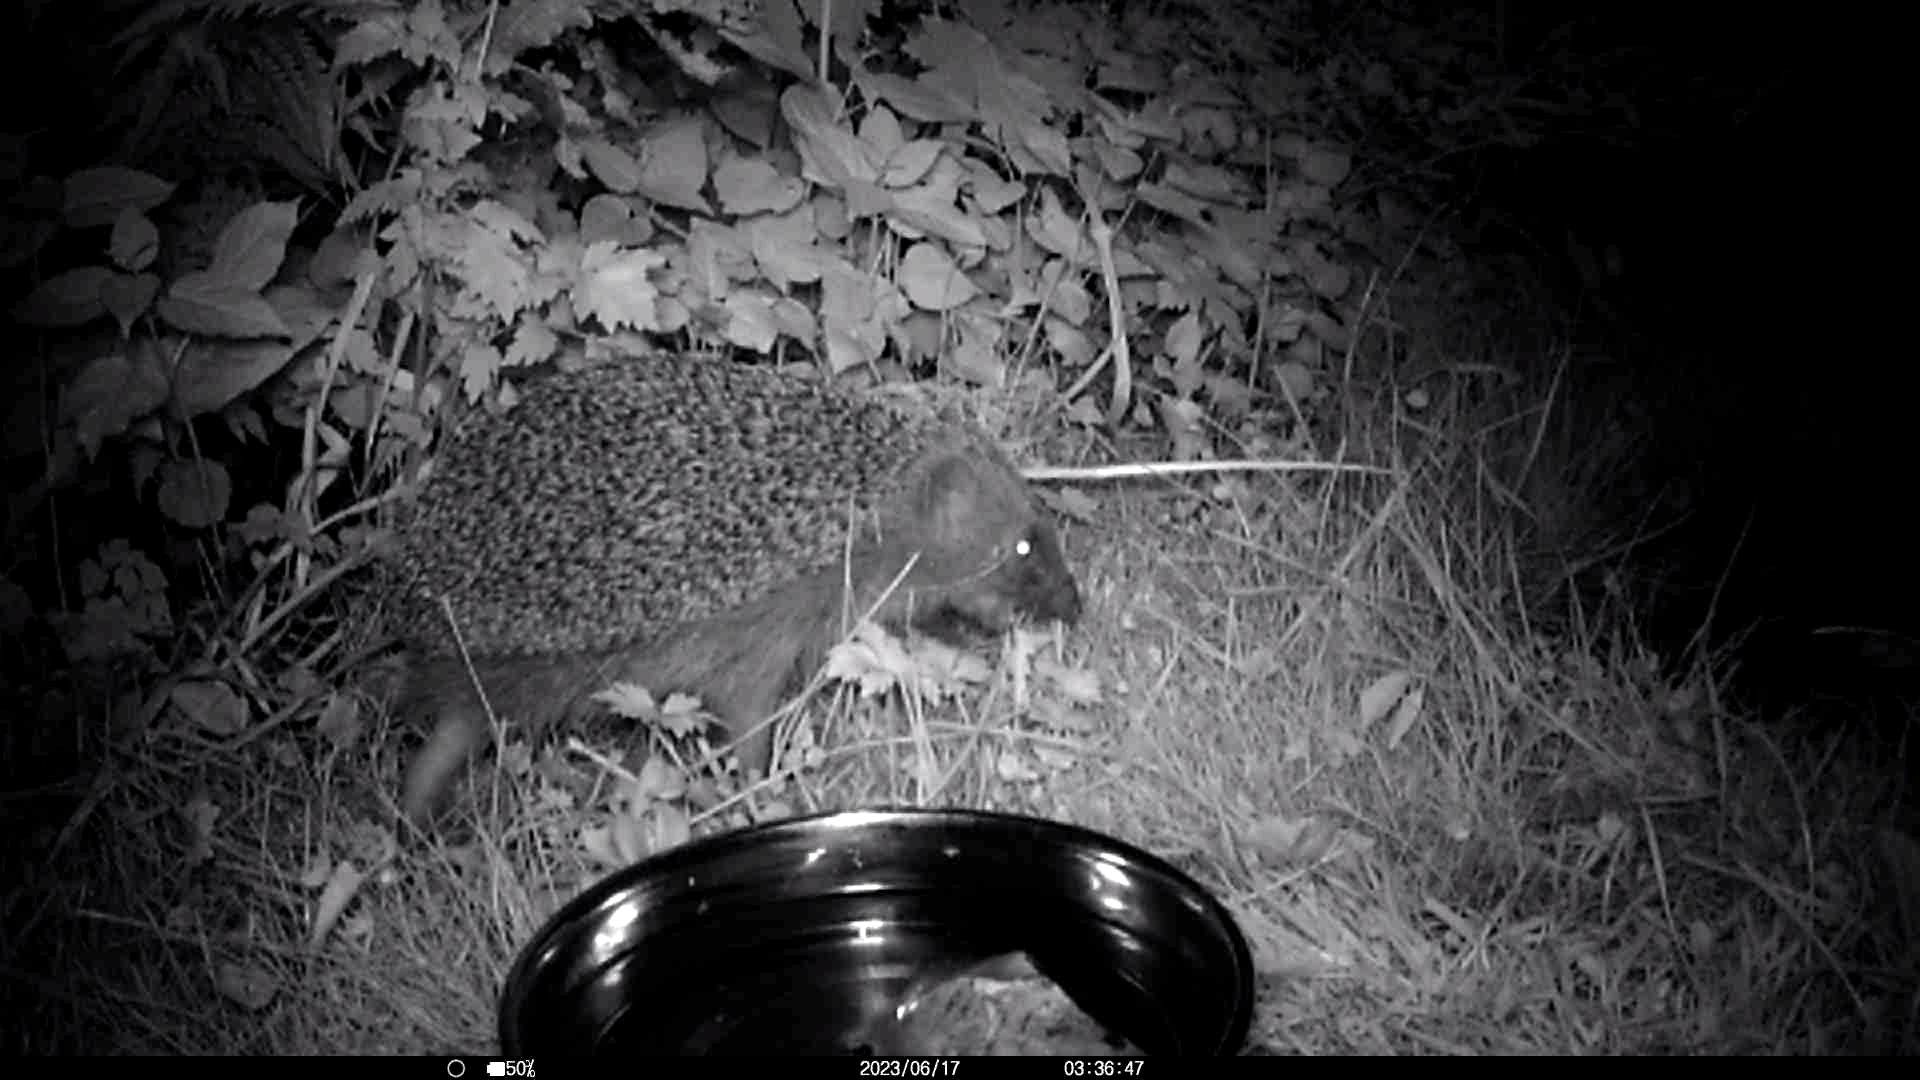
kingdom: Animalia
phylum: Chordata
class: Mammalia
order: Erinaceomorpha
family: Erinaceidae
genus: Erinaceus
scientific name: Erinaceus europaeus
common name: West european hedgehog
